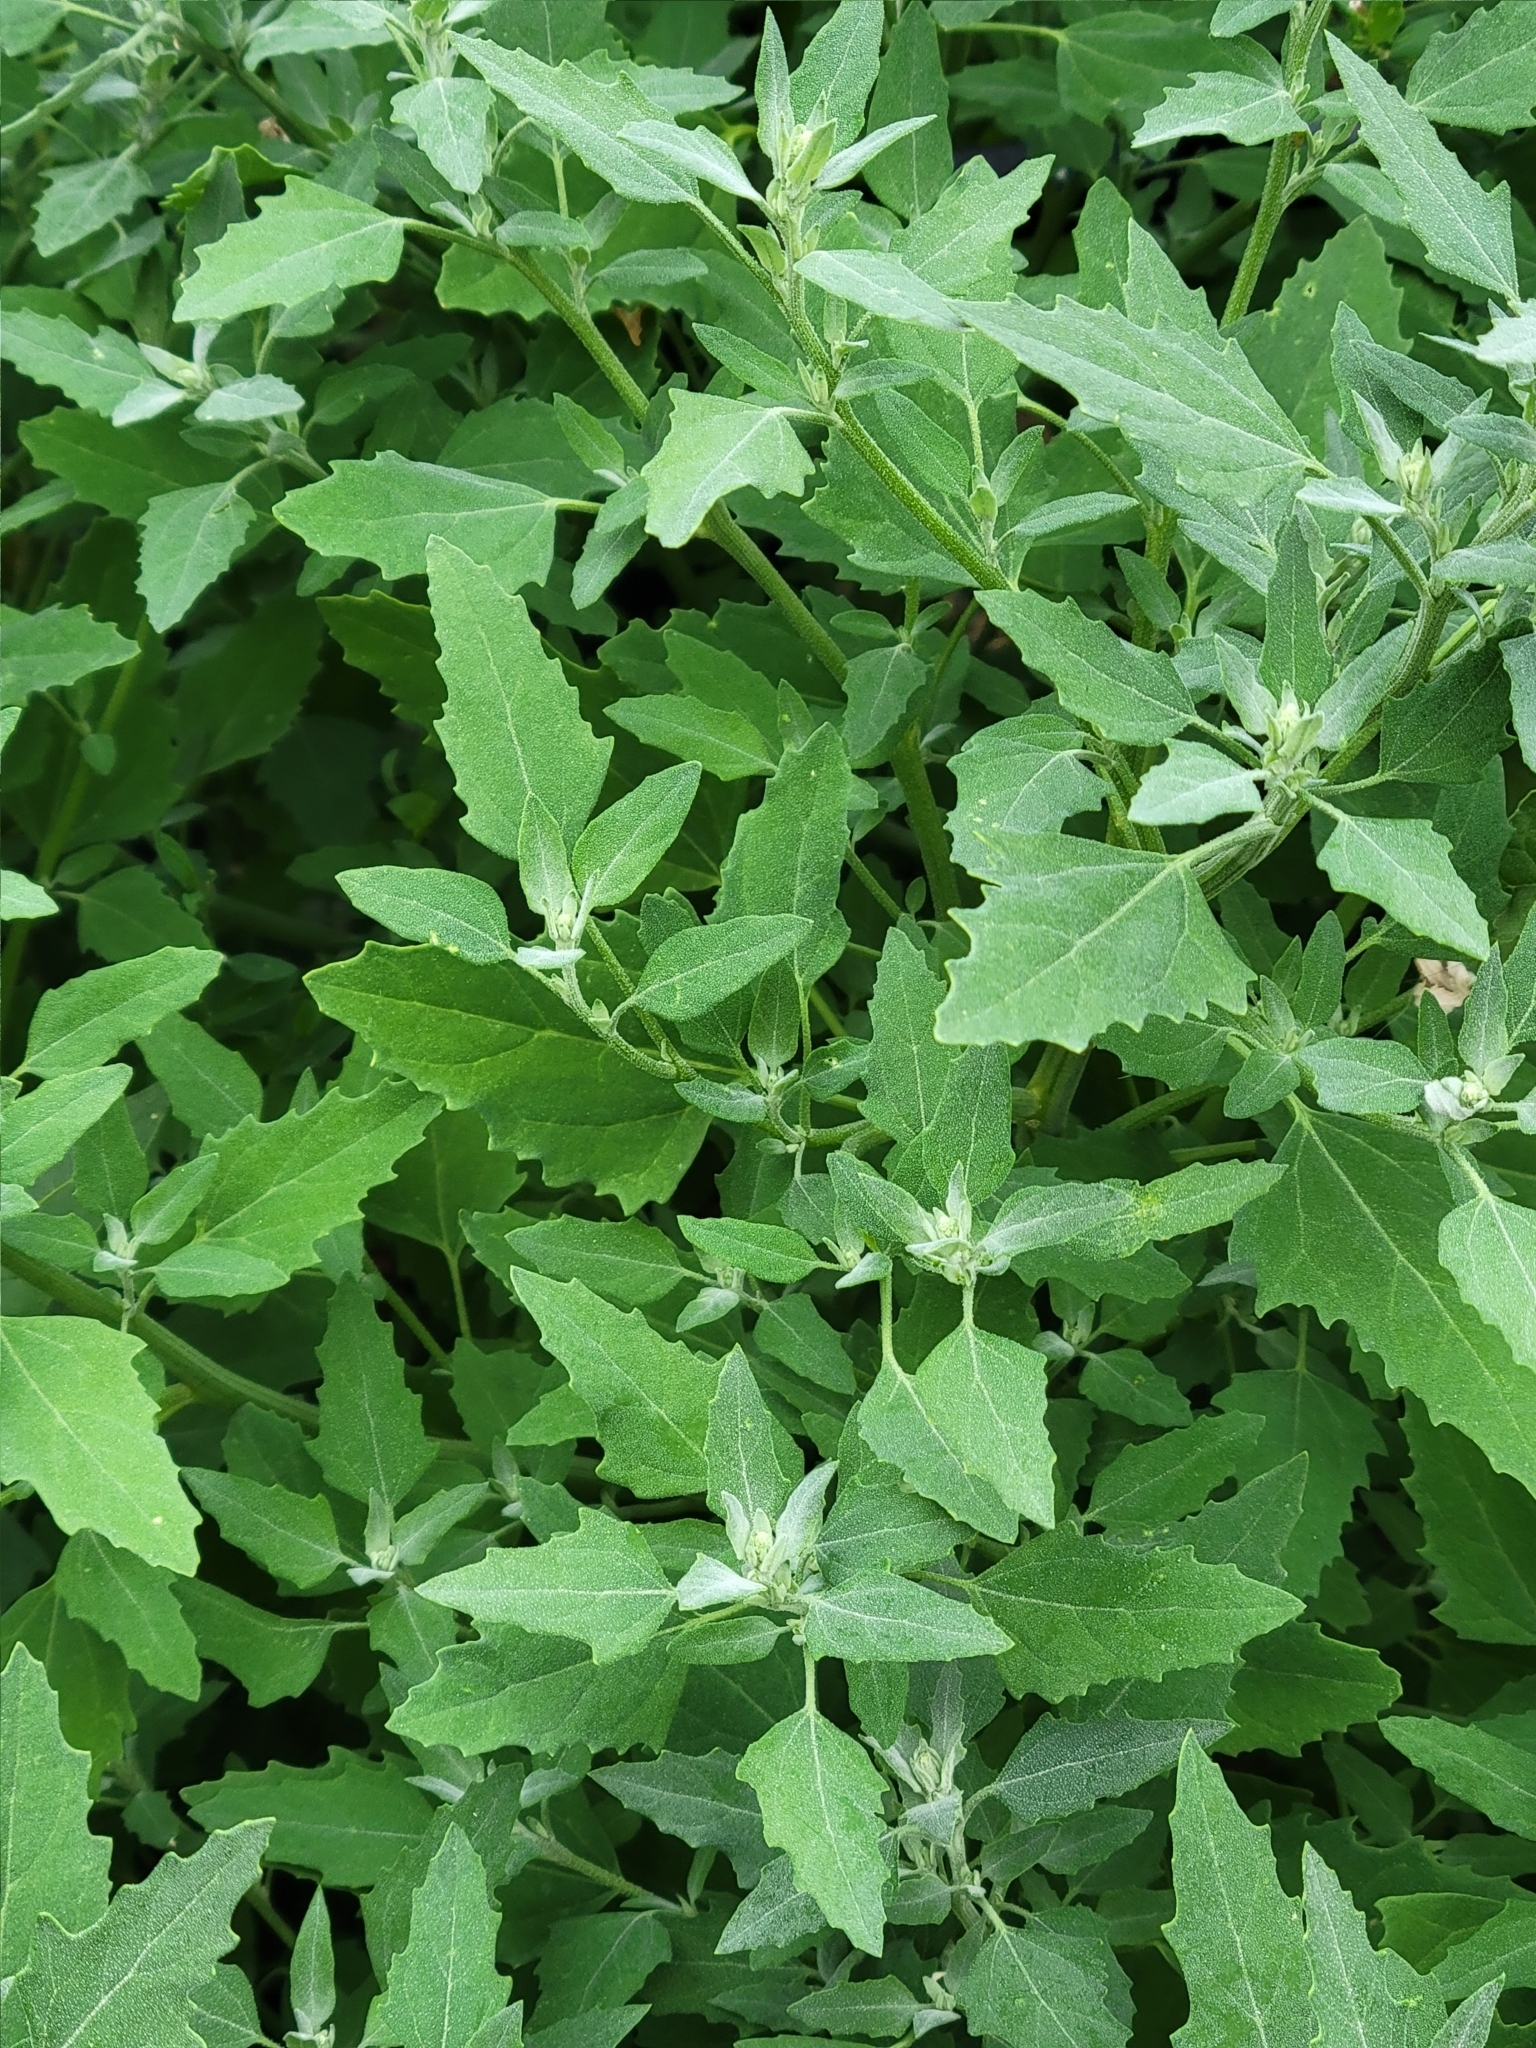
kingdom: Plantae
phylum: Tracheophyta
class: Magnoliopsida
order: Caryophyllales
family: Amaranthaceae
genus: Chenopodium
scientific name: Chenopodium album
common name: Fat-hen
